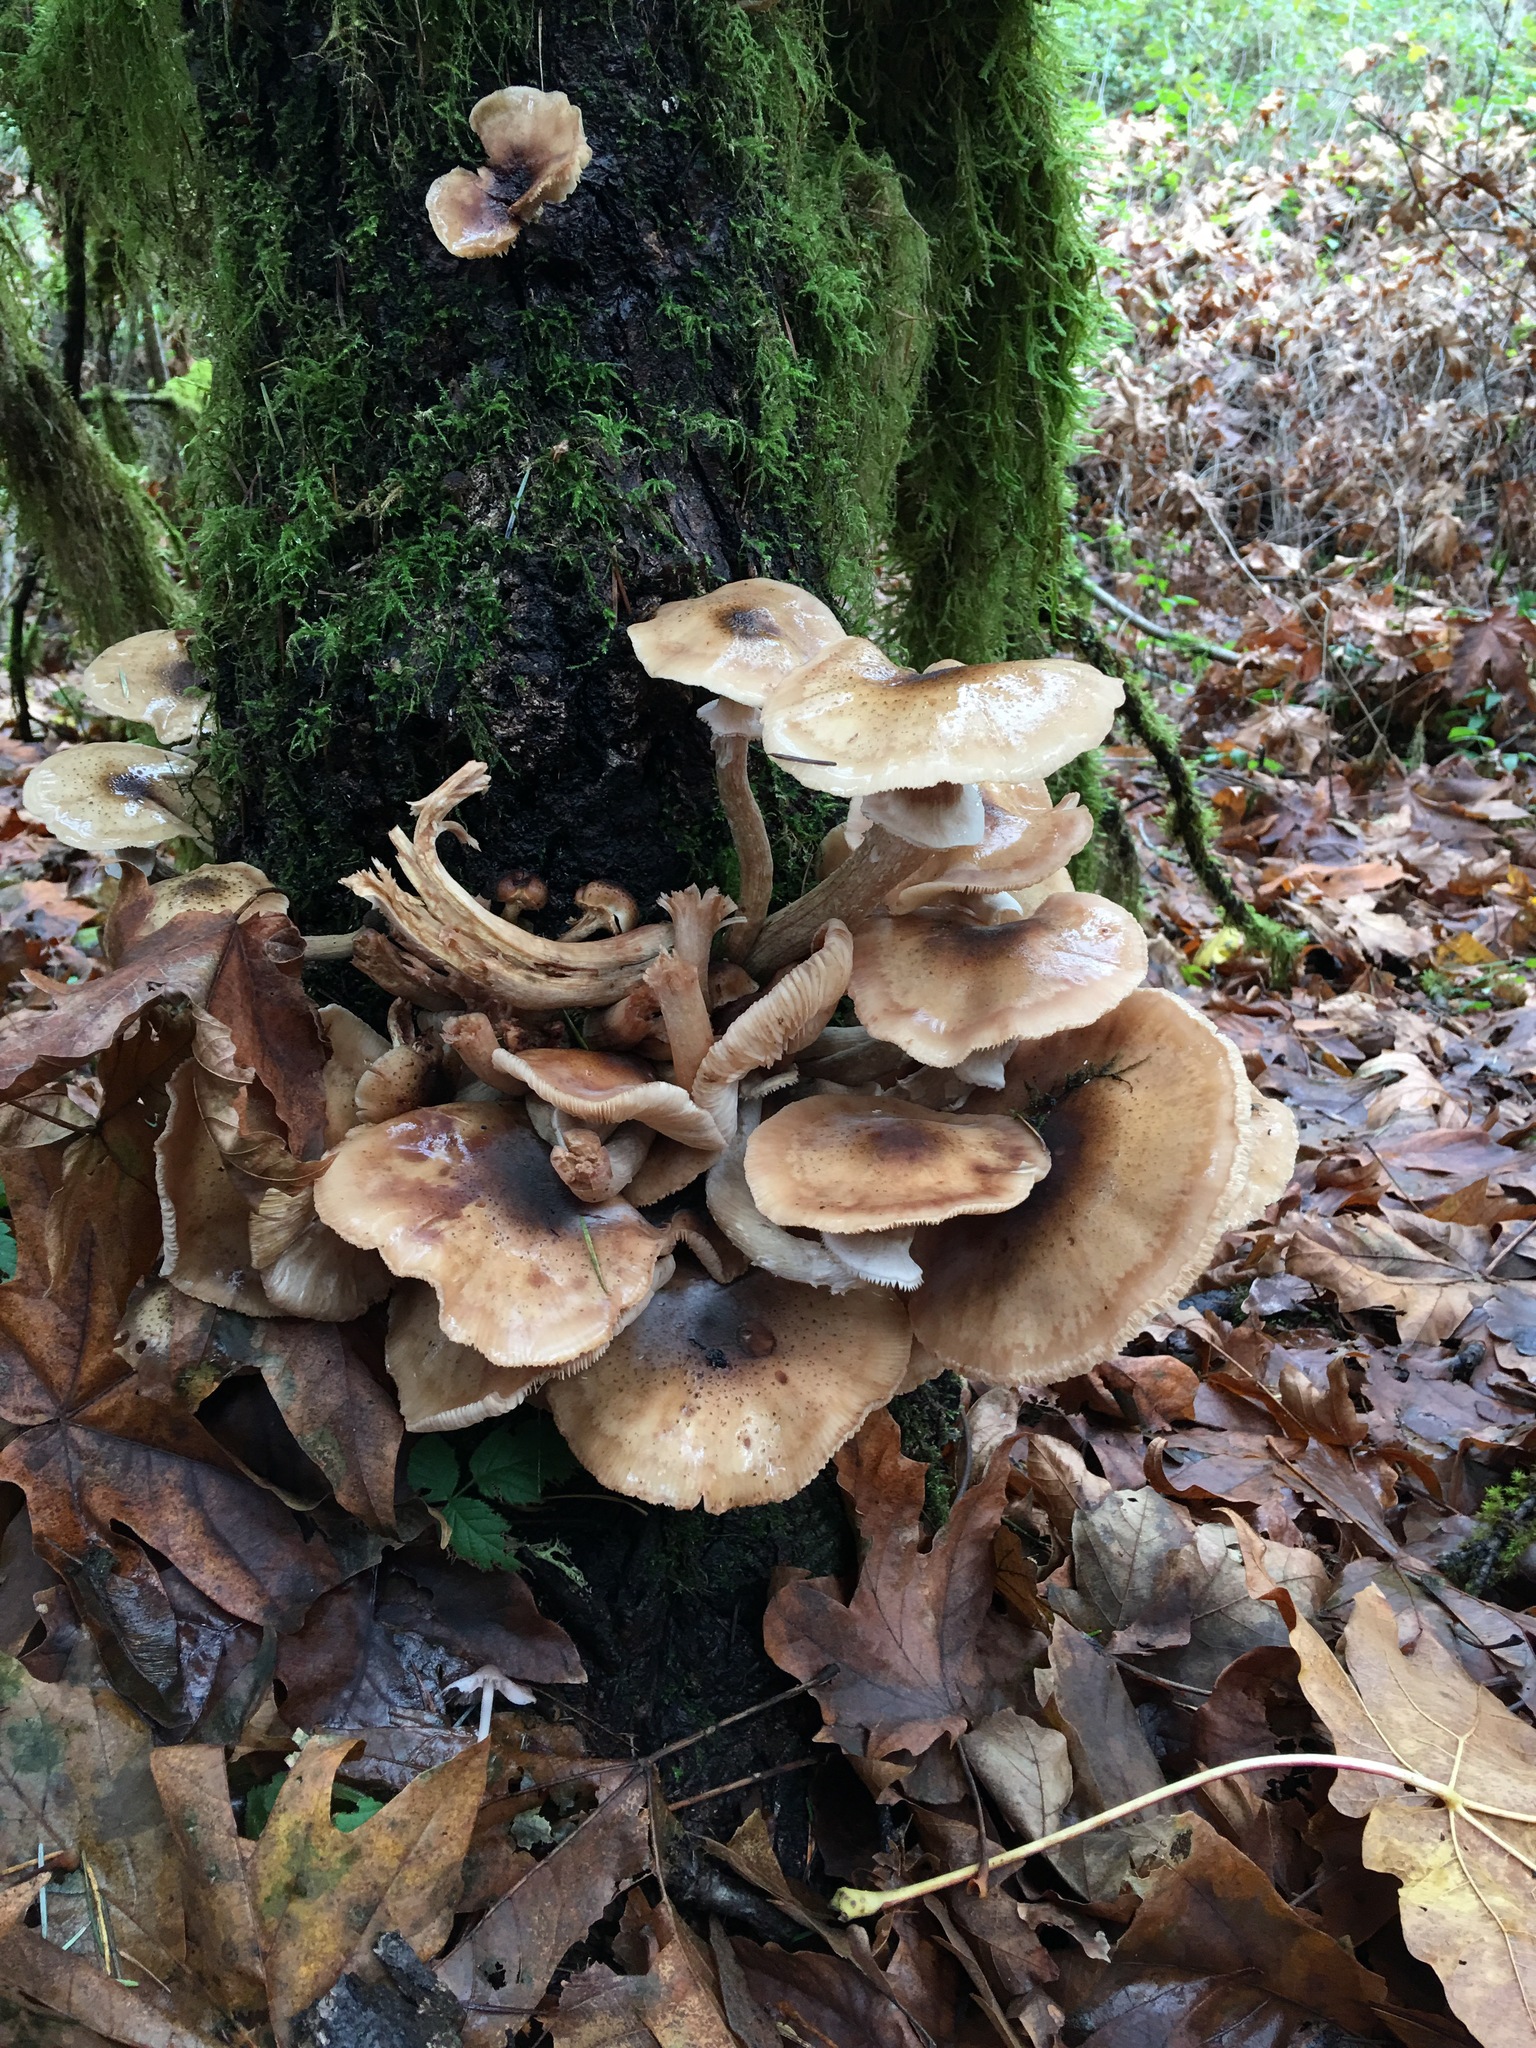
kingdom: Fungi
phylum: Basidiomycota
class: Agaricomycetes
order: Agaricales
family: Physalacriaceae
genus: Armillaria
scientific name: Armillaria mellea
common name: Honey fungus
